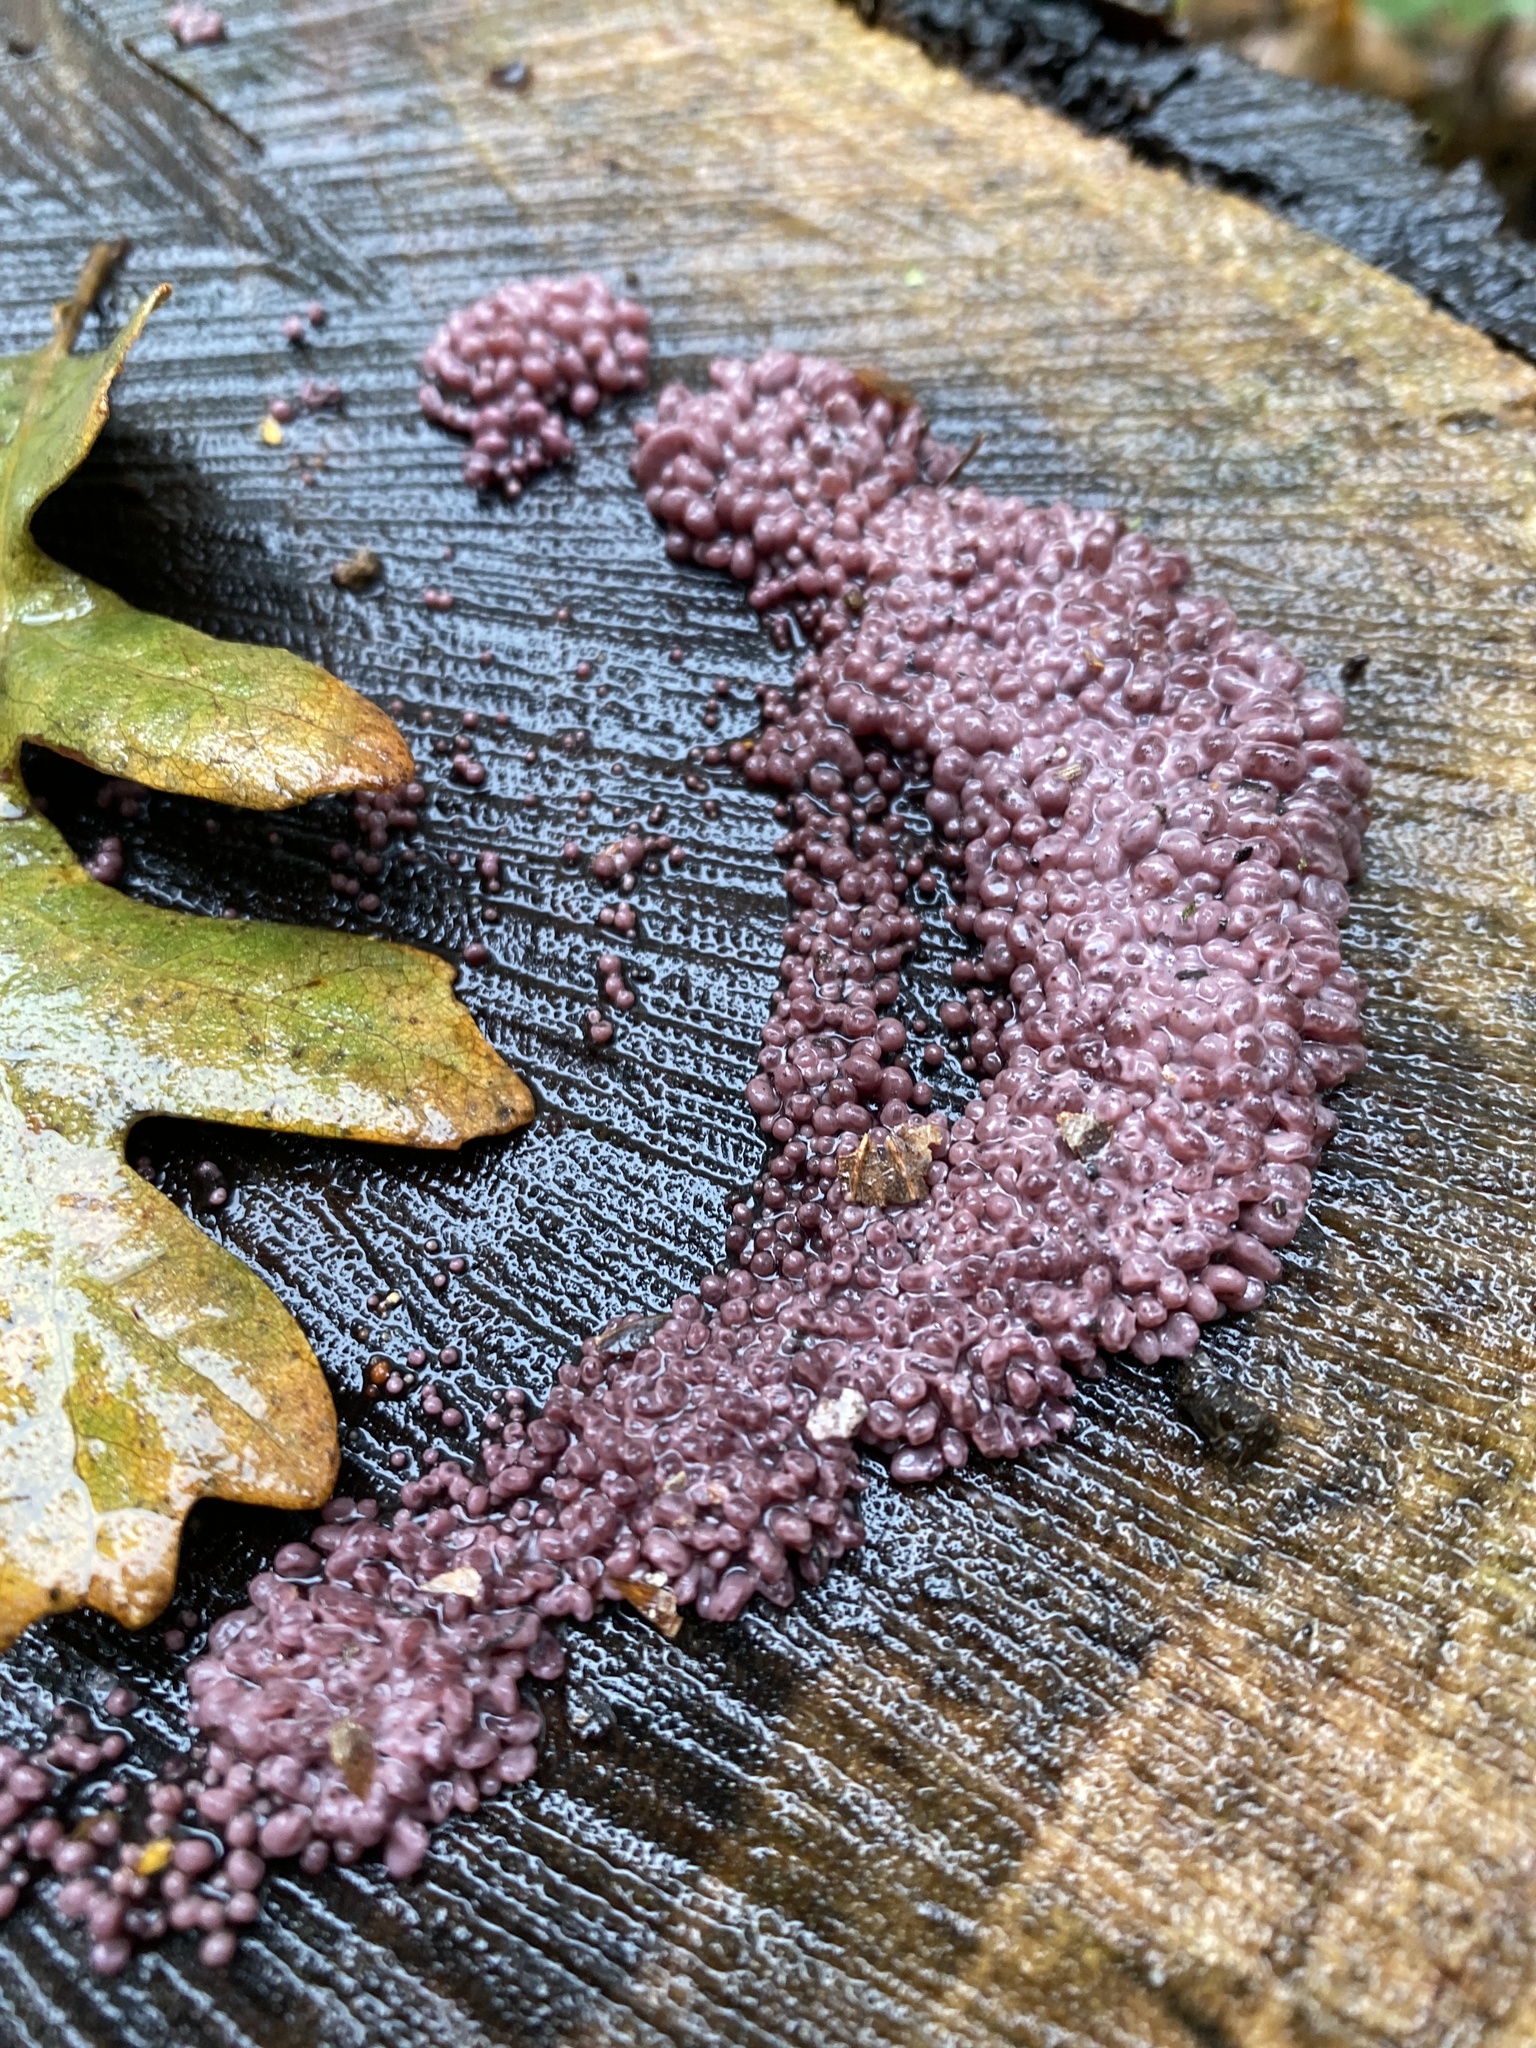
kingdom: Fungi
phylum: Ascomycota
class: Leotiomycetes
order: Helotiales
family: Gelatinodiscaceae
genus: Ascocoryne
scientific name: Ascocoryne sarcoides
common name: Purple jellydisc
